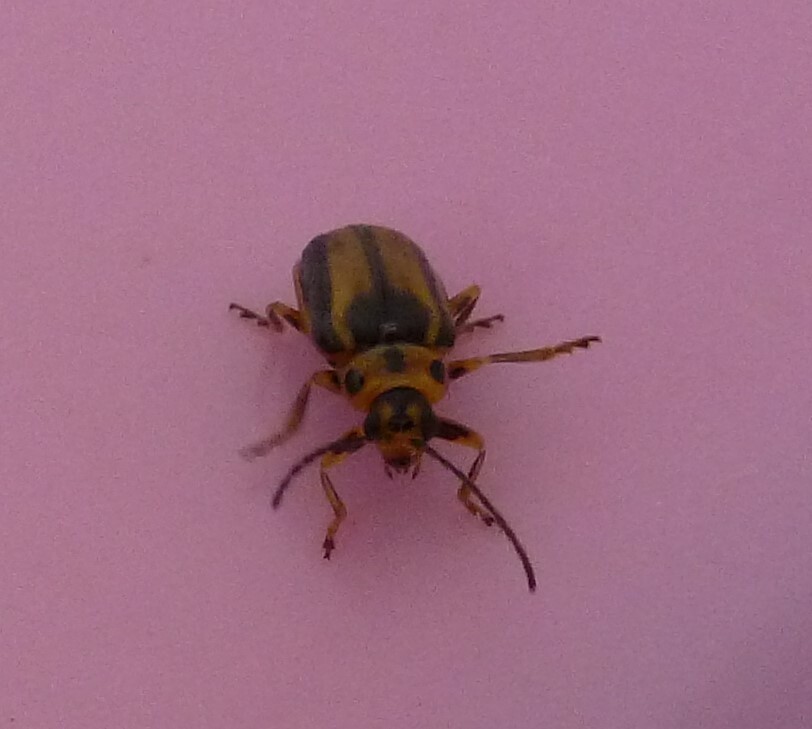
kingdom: Animalia
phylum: Arthropoda
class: Insecta
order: Coleoptera
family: Chrysomelidae
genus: Xanthogaleruca
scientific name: Xanthogaleruca luteola
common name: Elm leaf beetle
